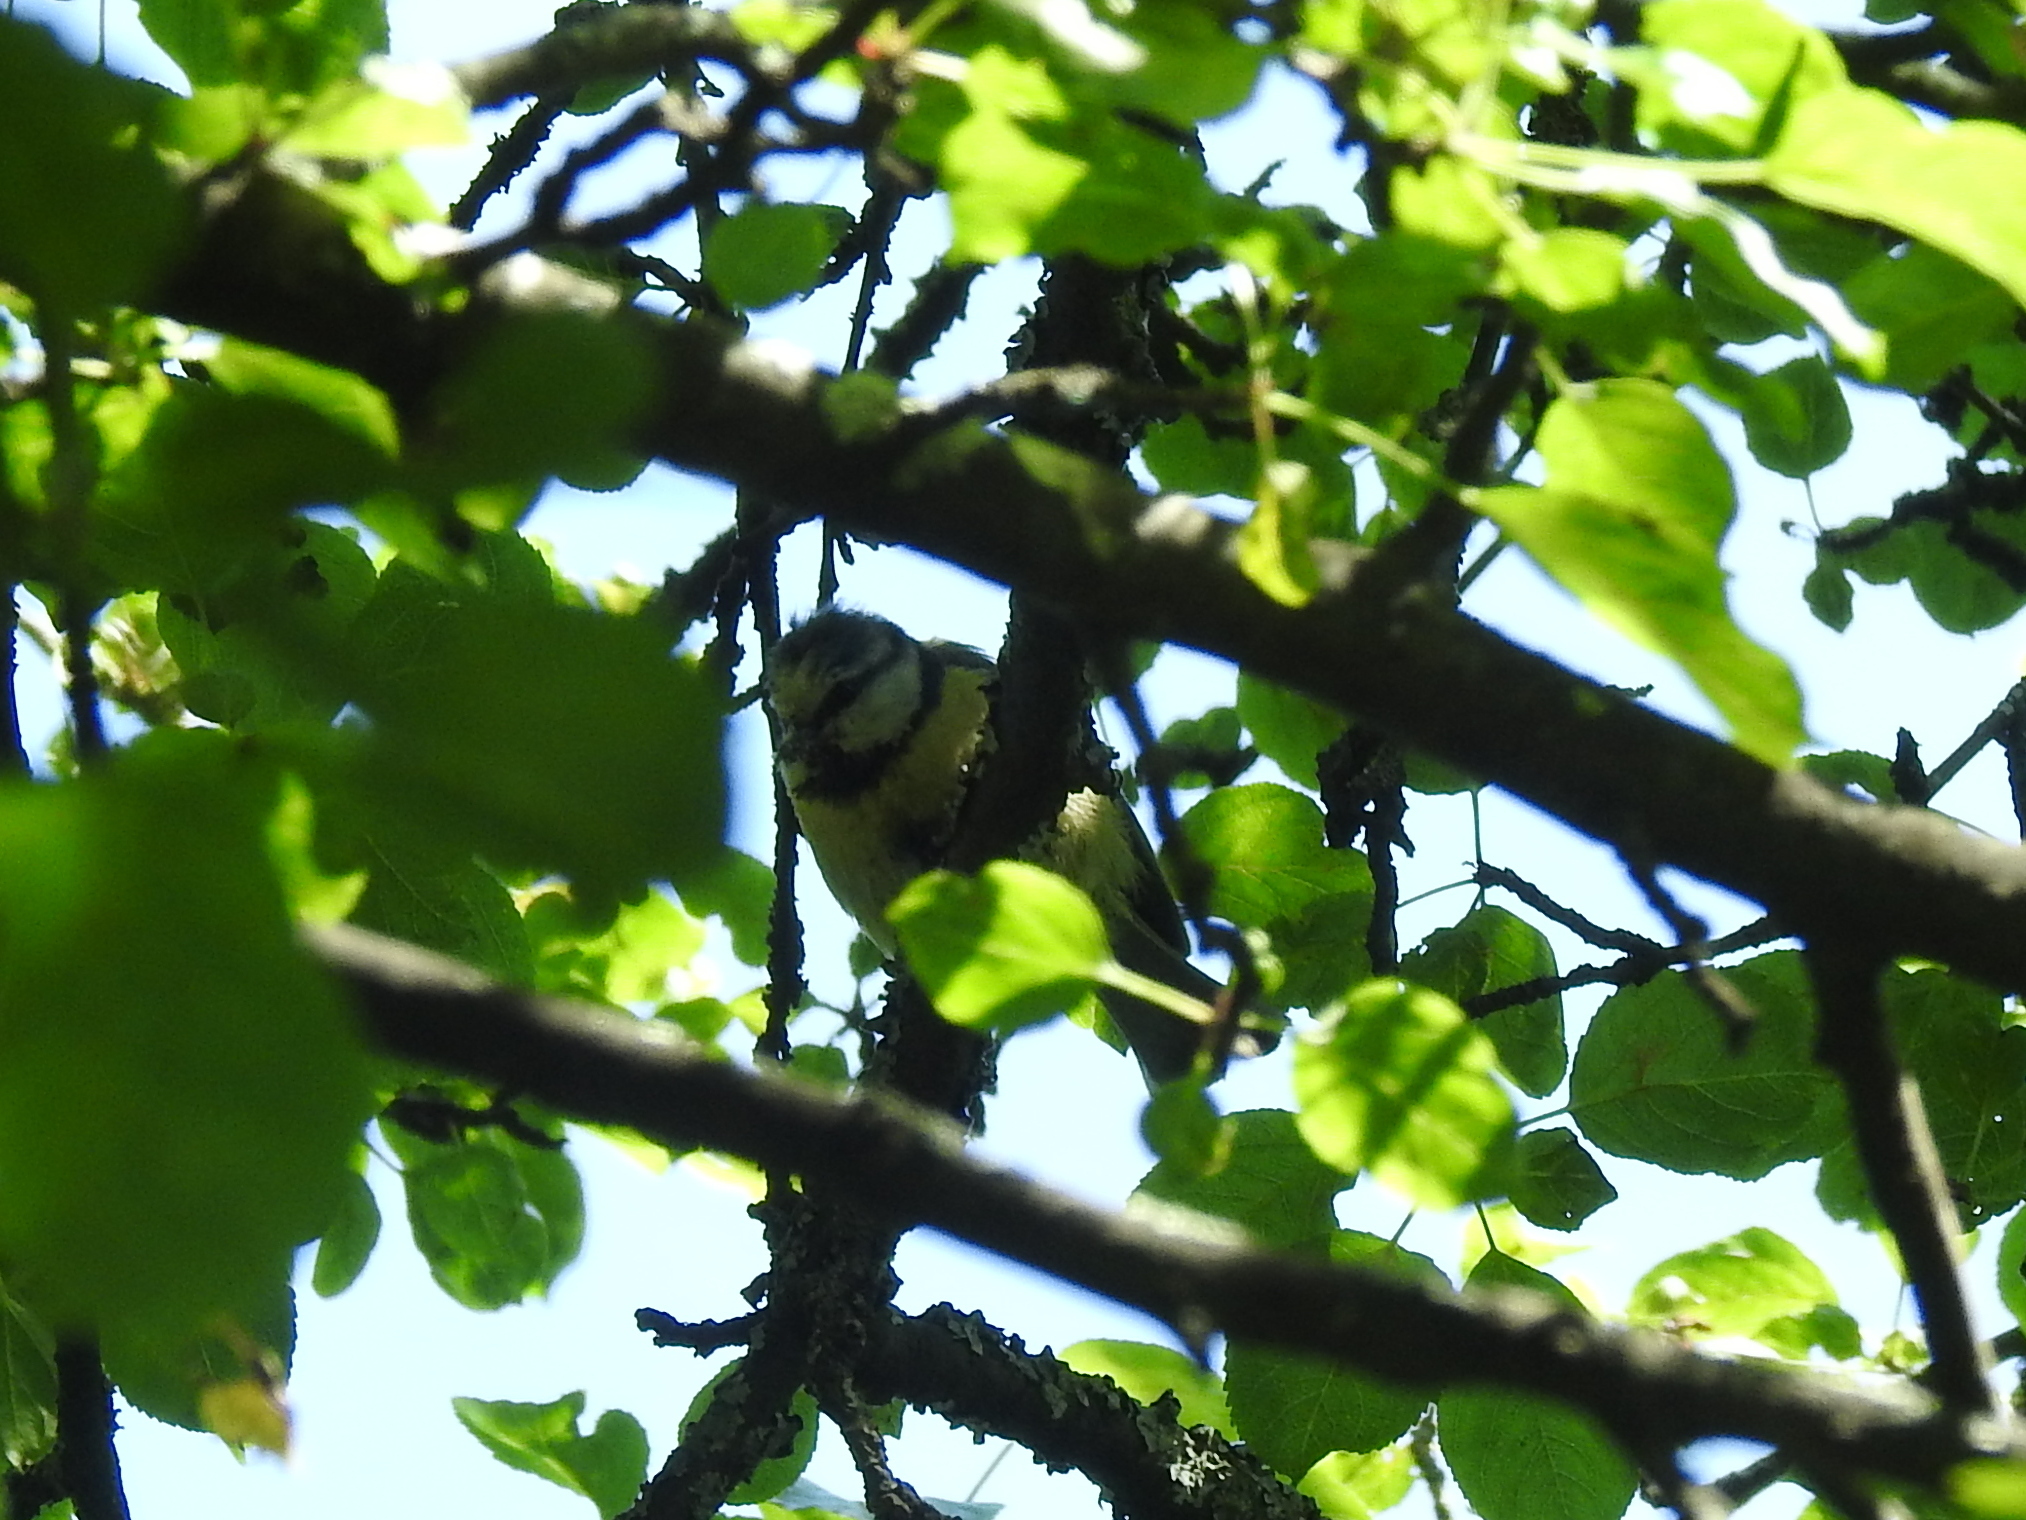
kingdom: Animalia
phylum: Chordata
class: Aves
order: Passeriformes
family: Paridae
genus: Cyanistes
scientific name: Cyanistes caeruleus
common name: Eurasian blue tit
